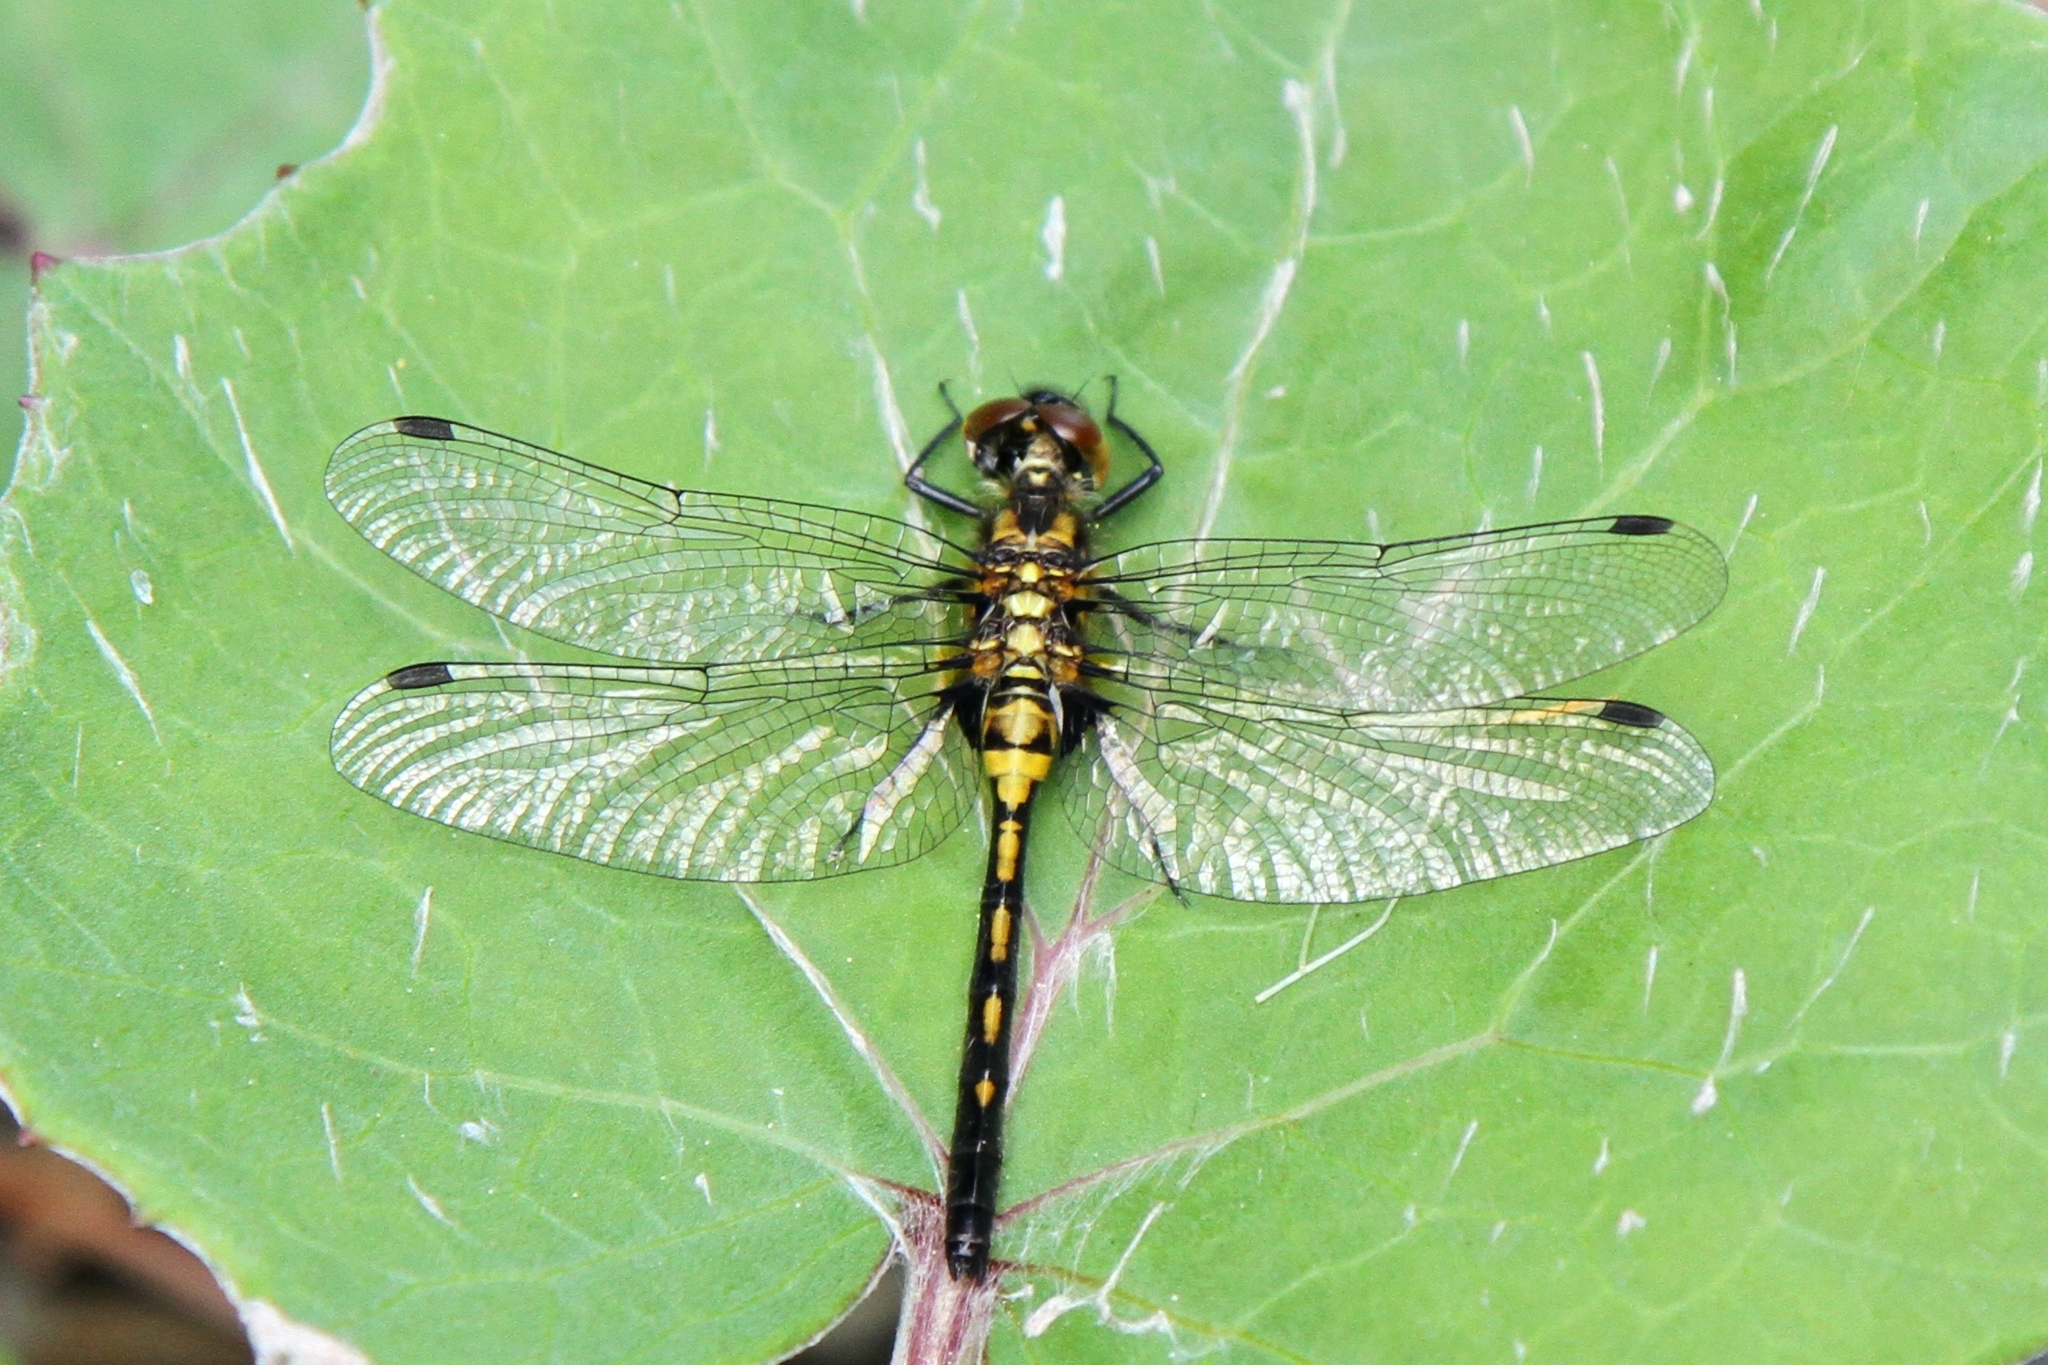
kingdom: Animalia
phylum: Arthropoda
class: Insecta
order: Odonata
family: Libellulidae
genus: Leucorrhinia
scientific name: Leucorrhinia glacialis
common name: Crimson-ringed whiteface
